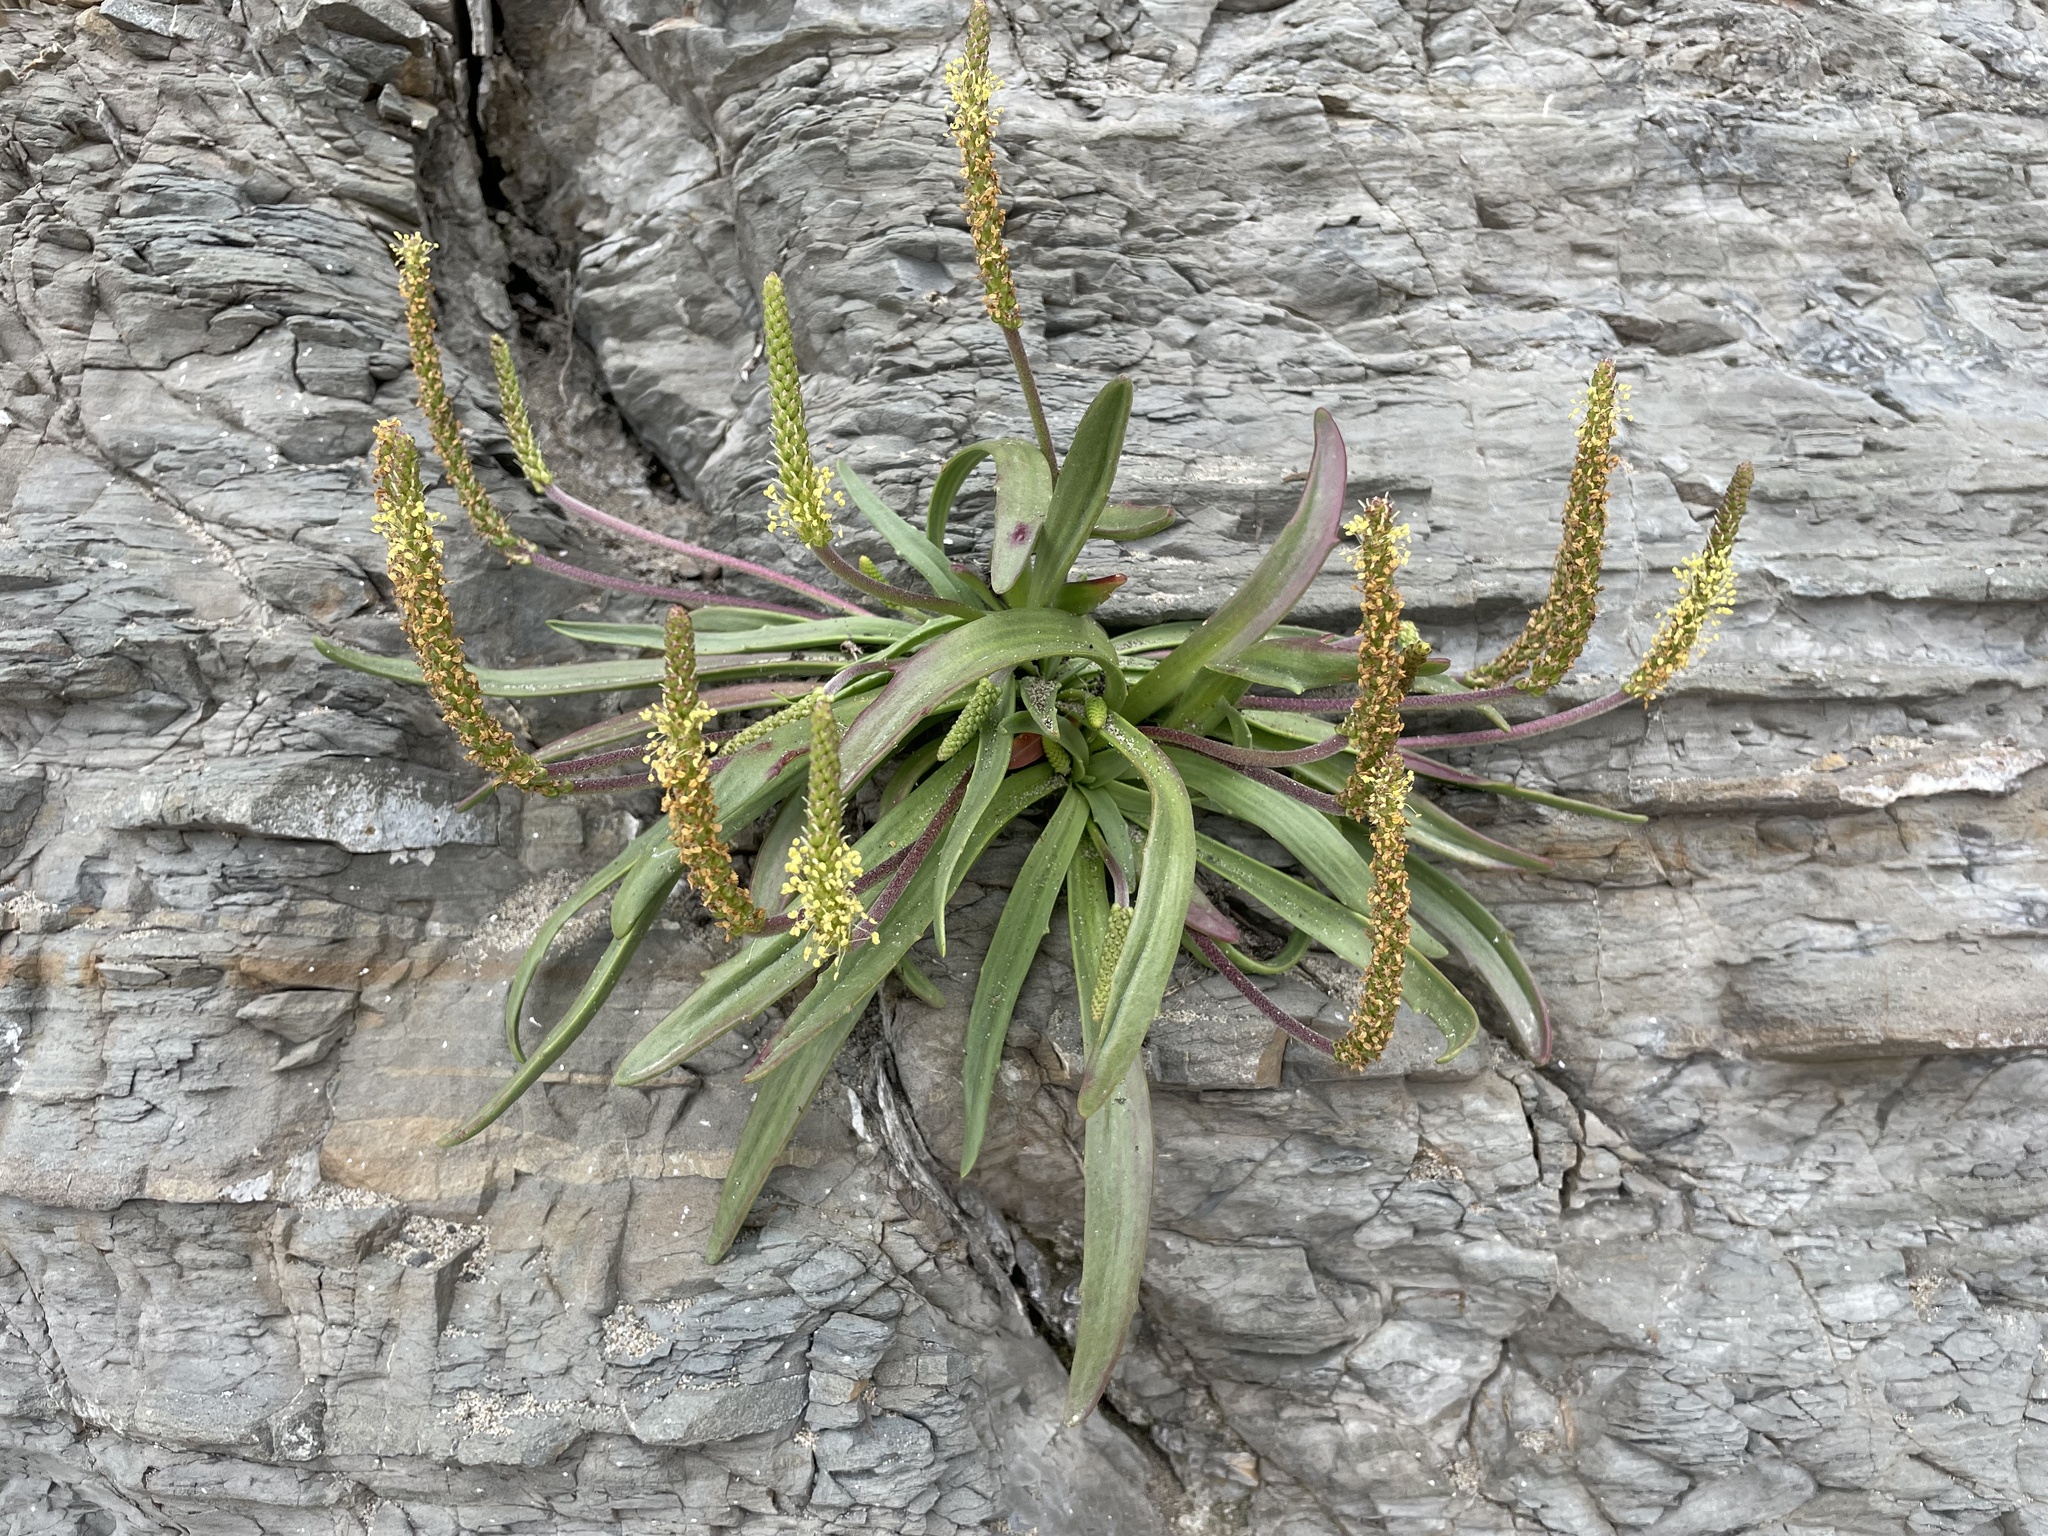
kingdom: Plantae
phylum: Tracheophyta
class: Magnoliopsida
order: Lamiales
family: Plantaginaceae
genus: Plantago
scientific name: Plantago maritima
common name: Sea plantain
